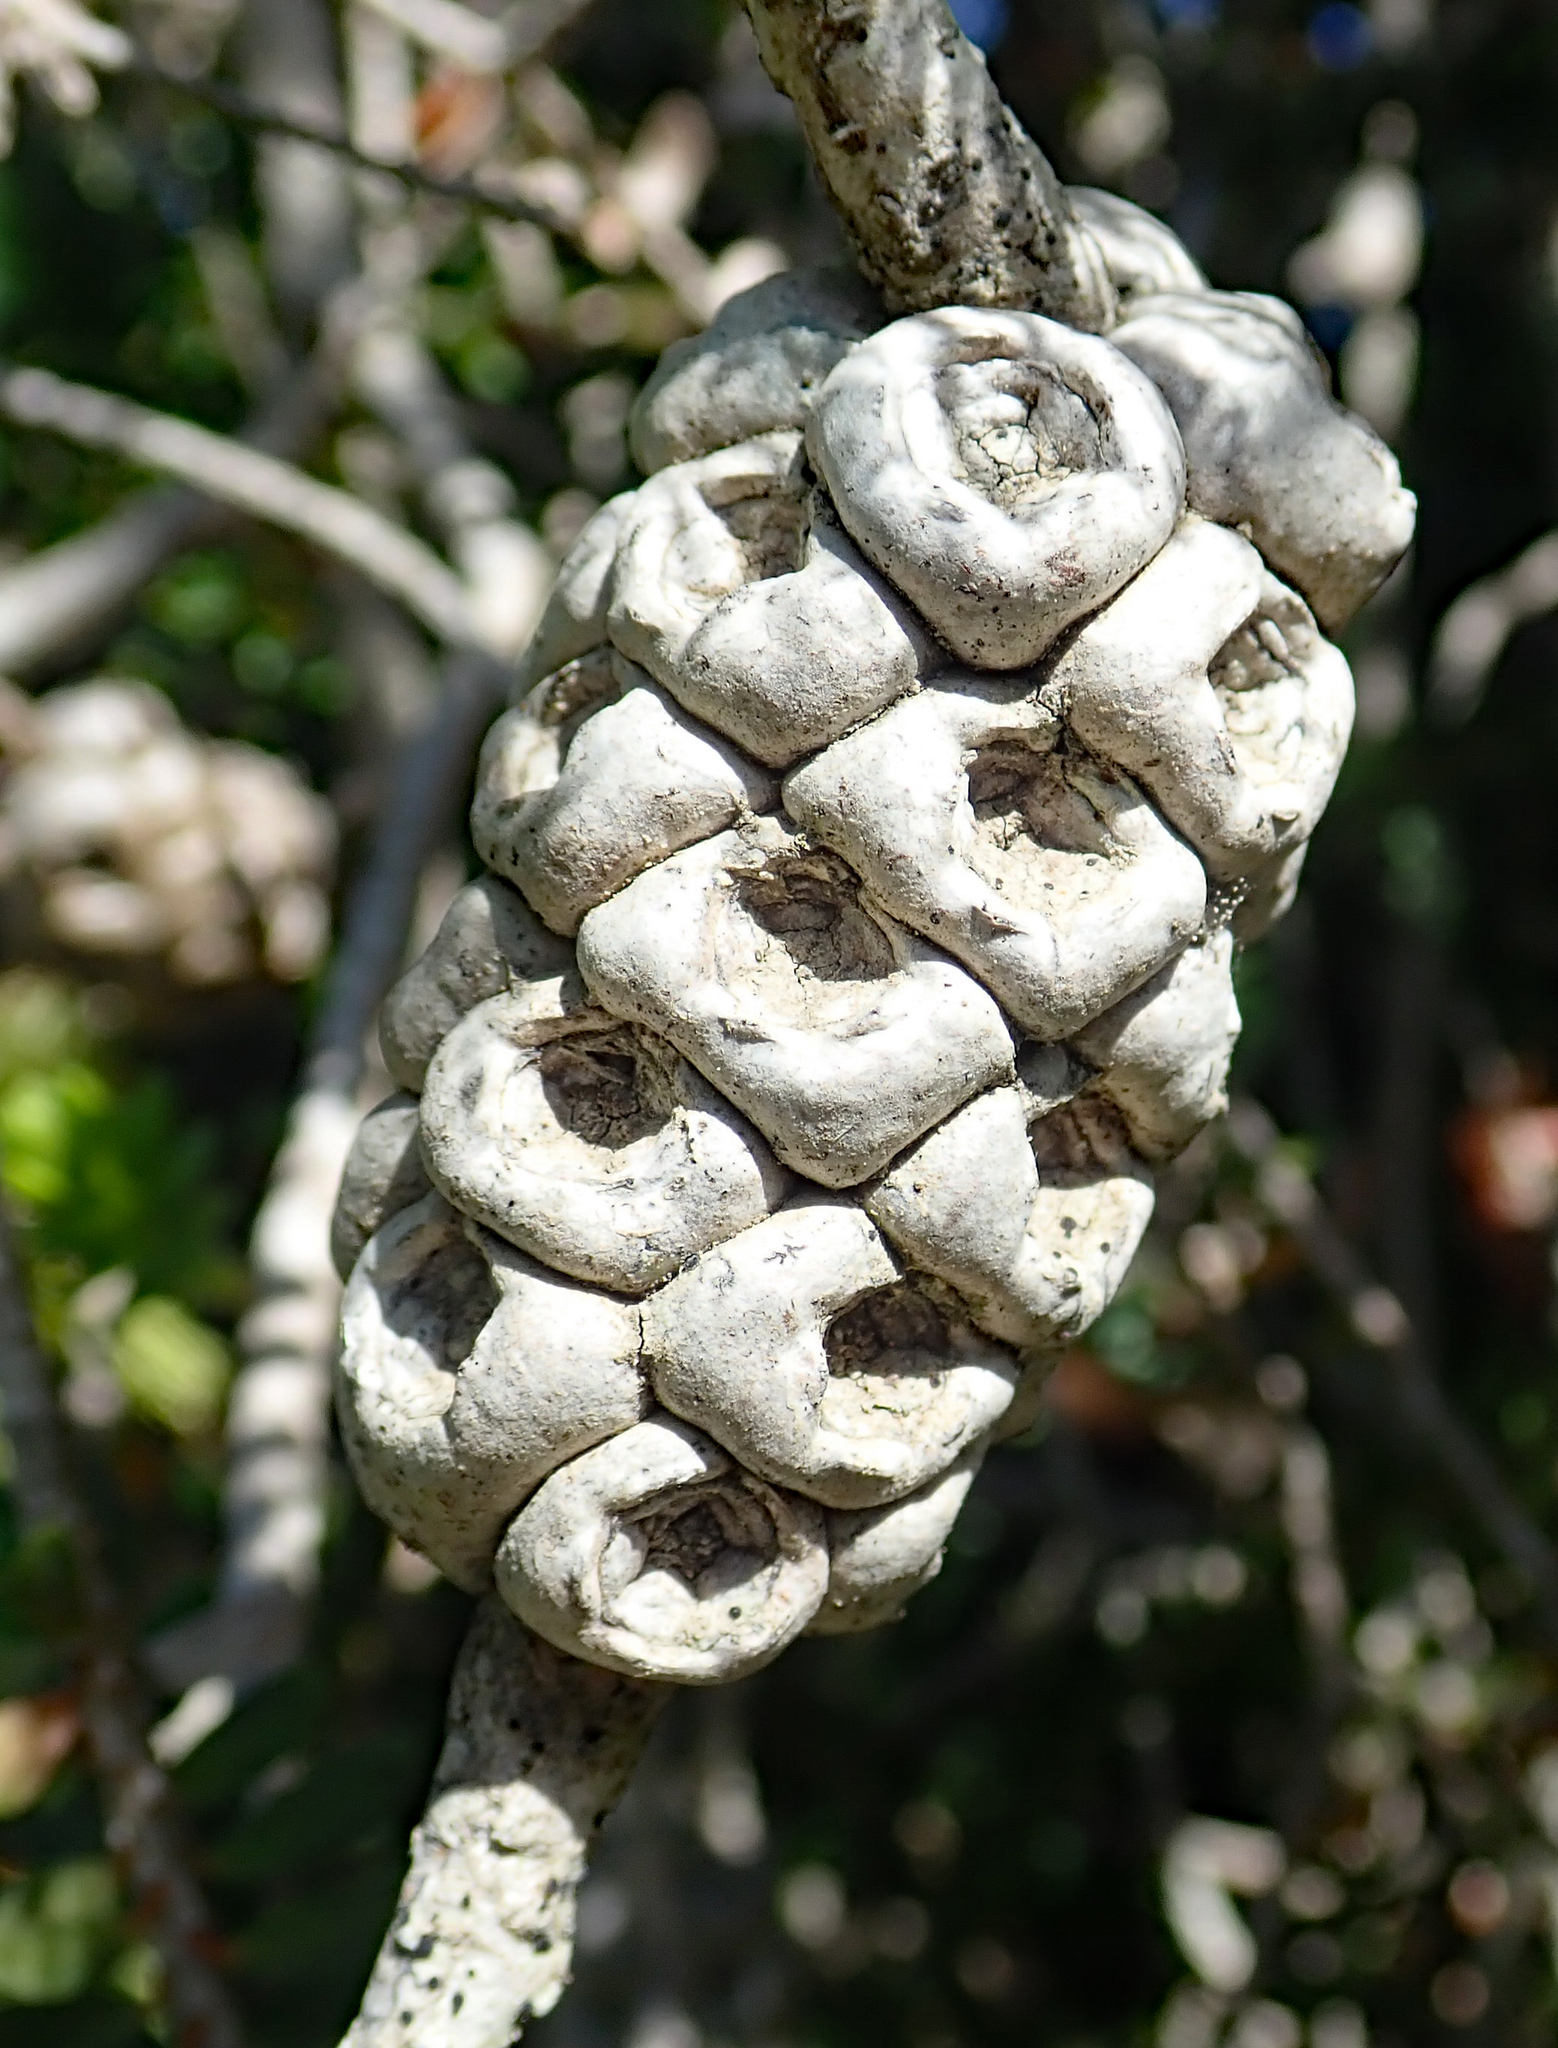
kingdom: Plantae
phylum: Tracheophyta
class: Magnoliopsida
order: Myrtales
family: Myrtaceae
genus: Melaleuca
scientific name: Melaleuca diosmifolia
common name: Green honey myrtle
